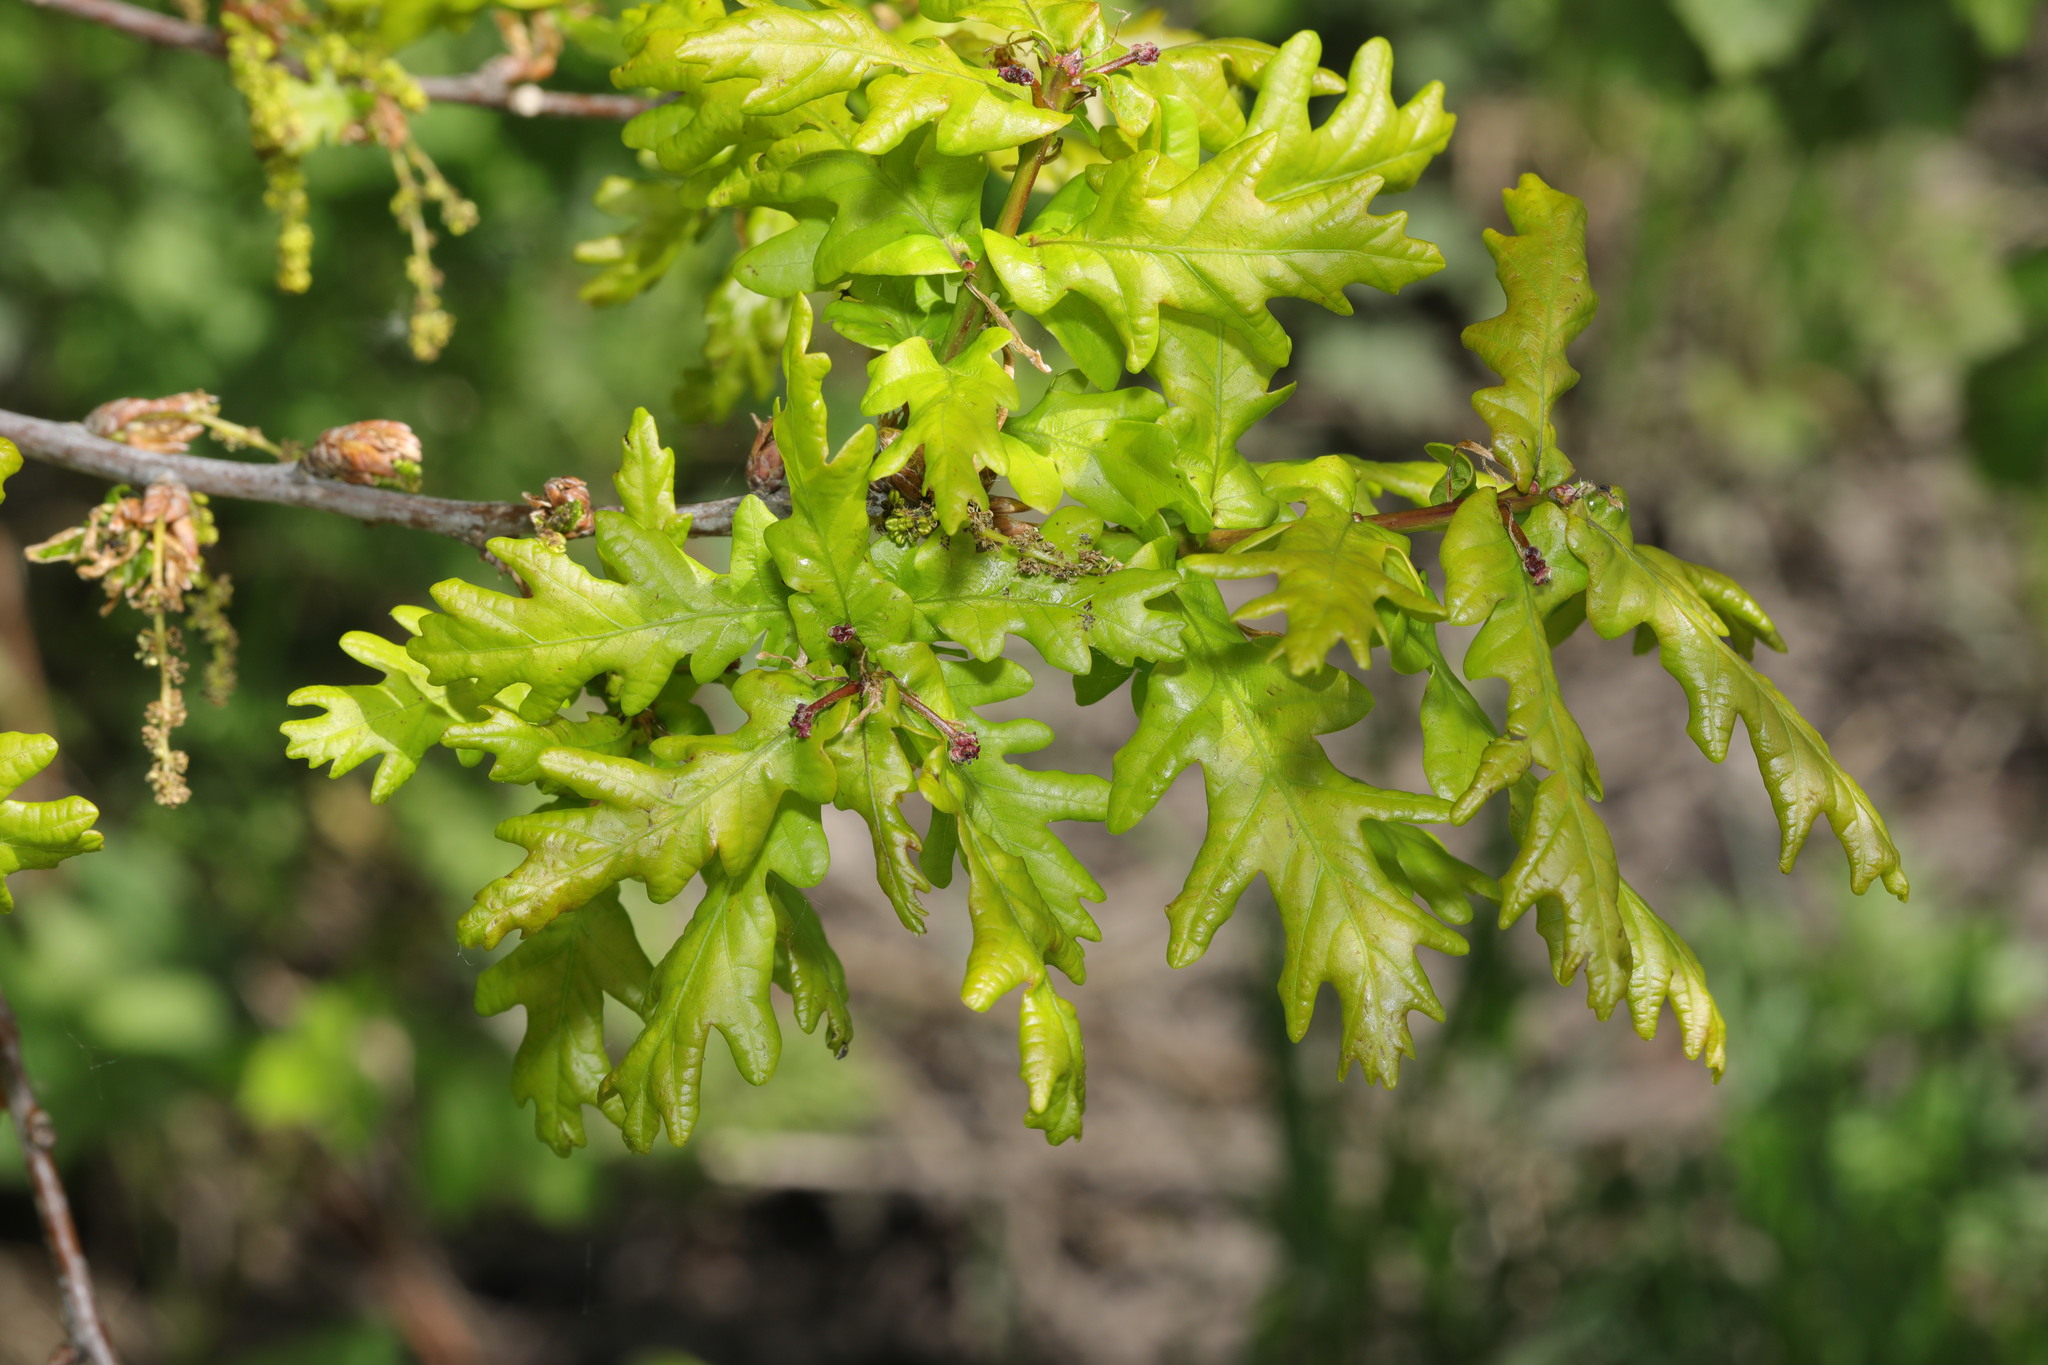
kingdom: Plantae
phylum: Tracheophyta
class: Magnoliopsida
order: Fagales
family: Fagaceae
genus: Quercus
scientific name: Quercus robur
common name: Pedunculate oak
